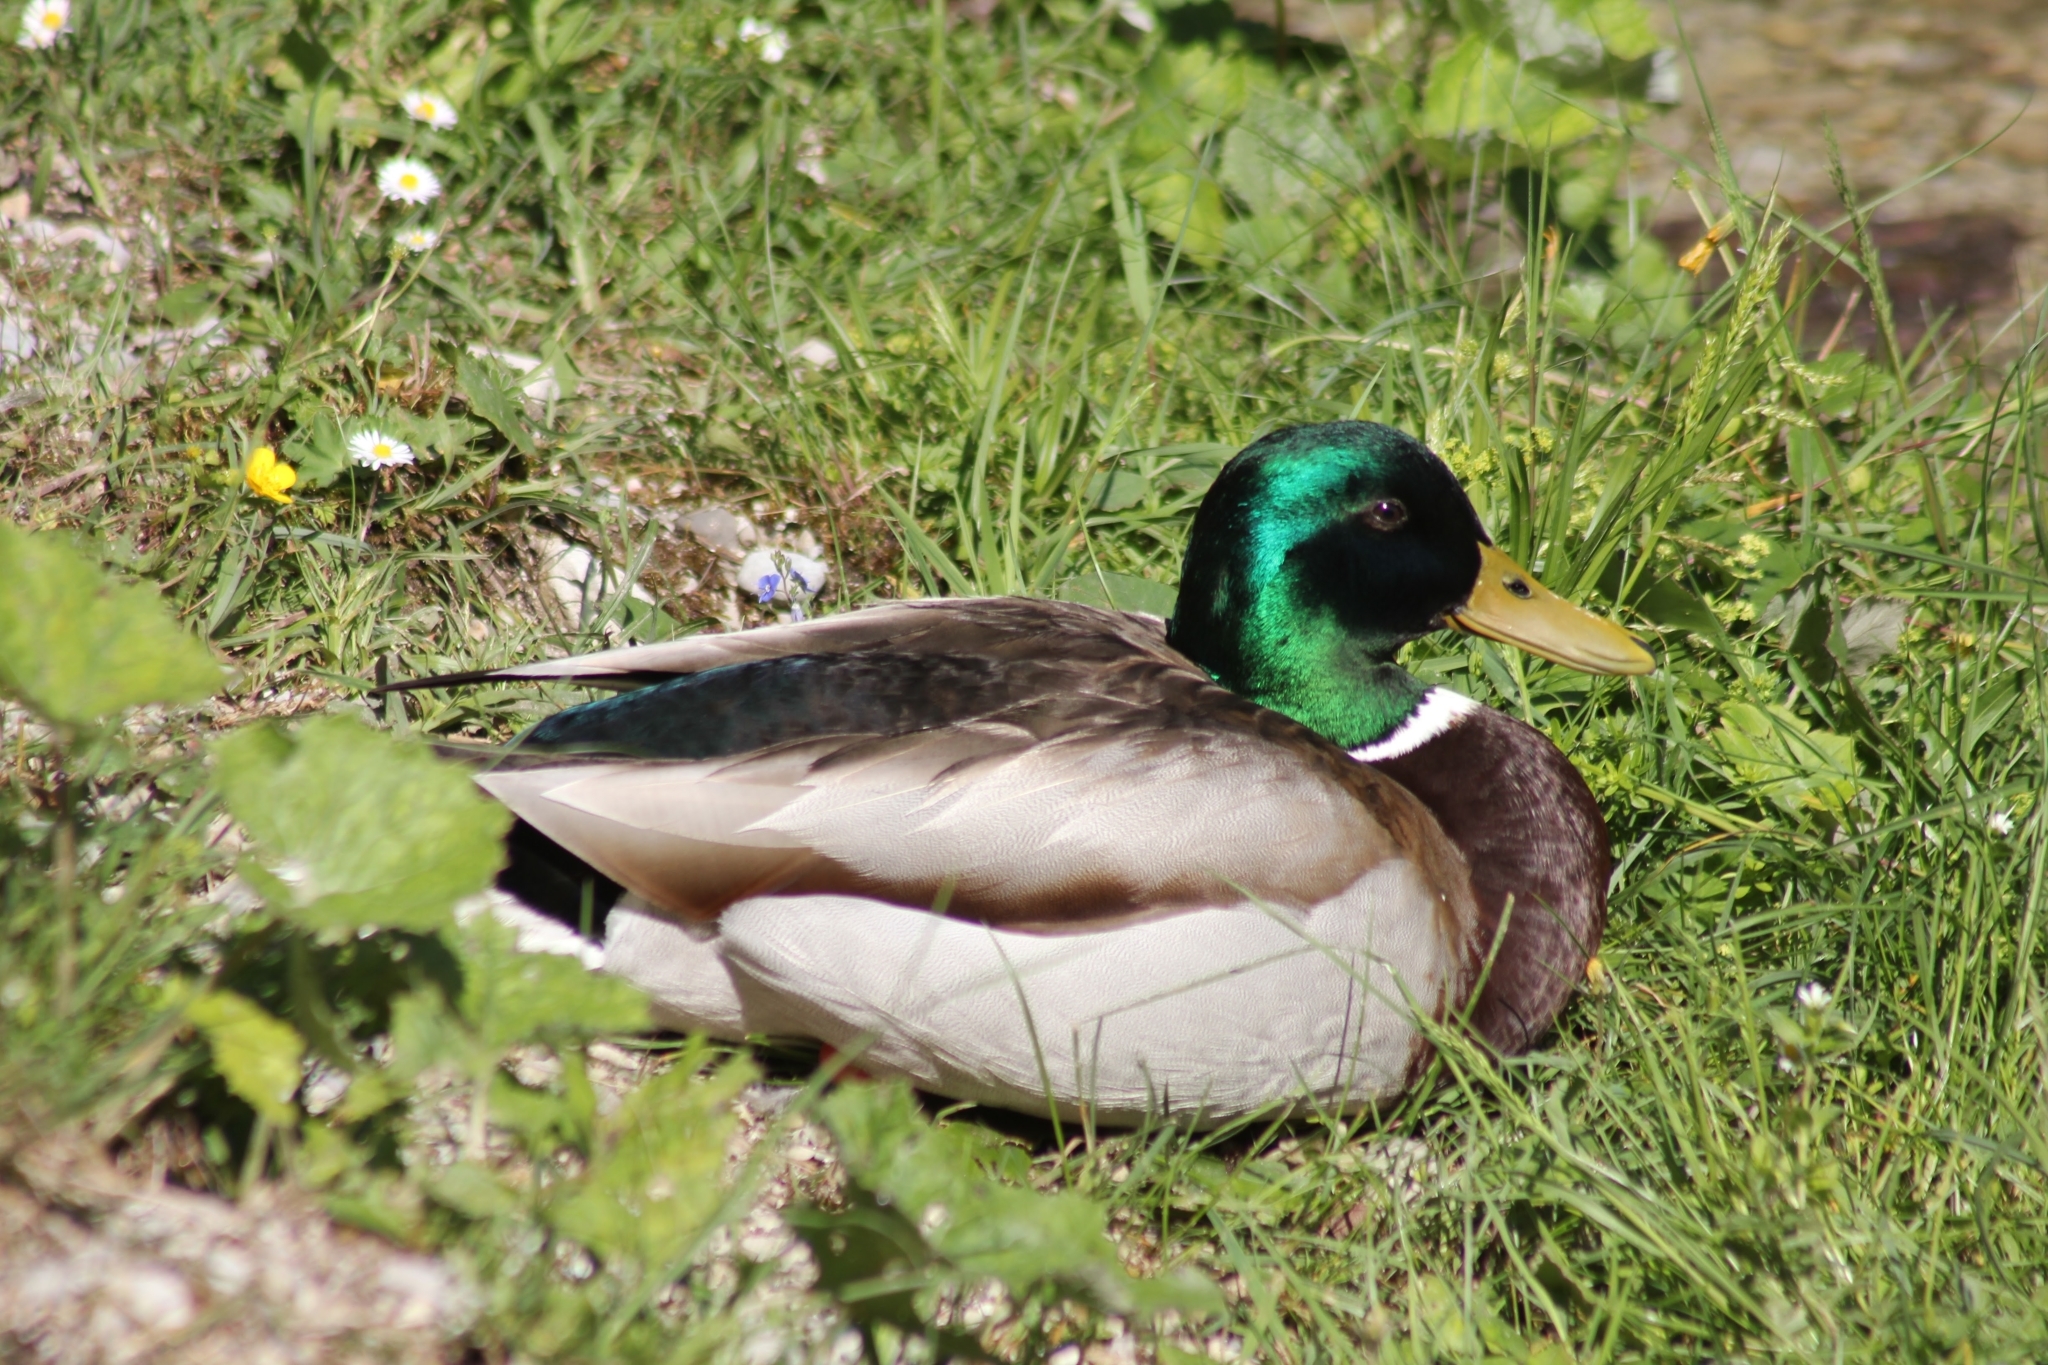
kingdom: Animalia
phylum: Chordata
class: Aves
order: Anseriformes
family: Anatidae
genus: Anas
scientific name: Anas platyrhynchos
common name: Mallard
